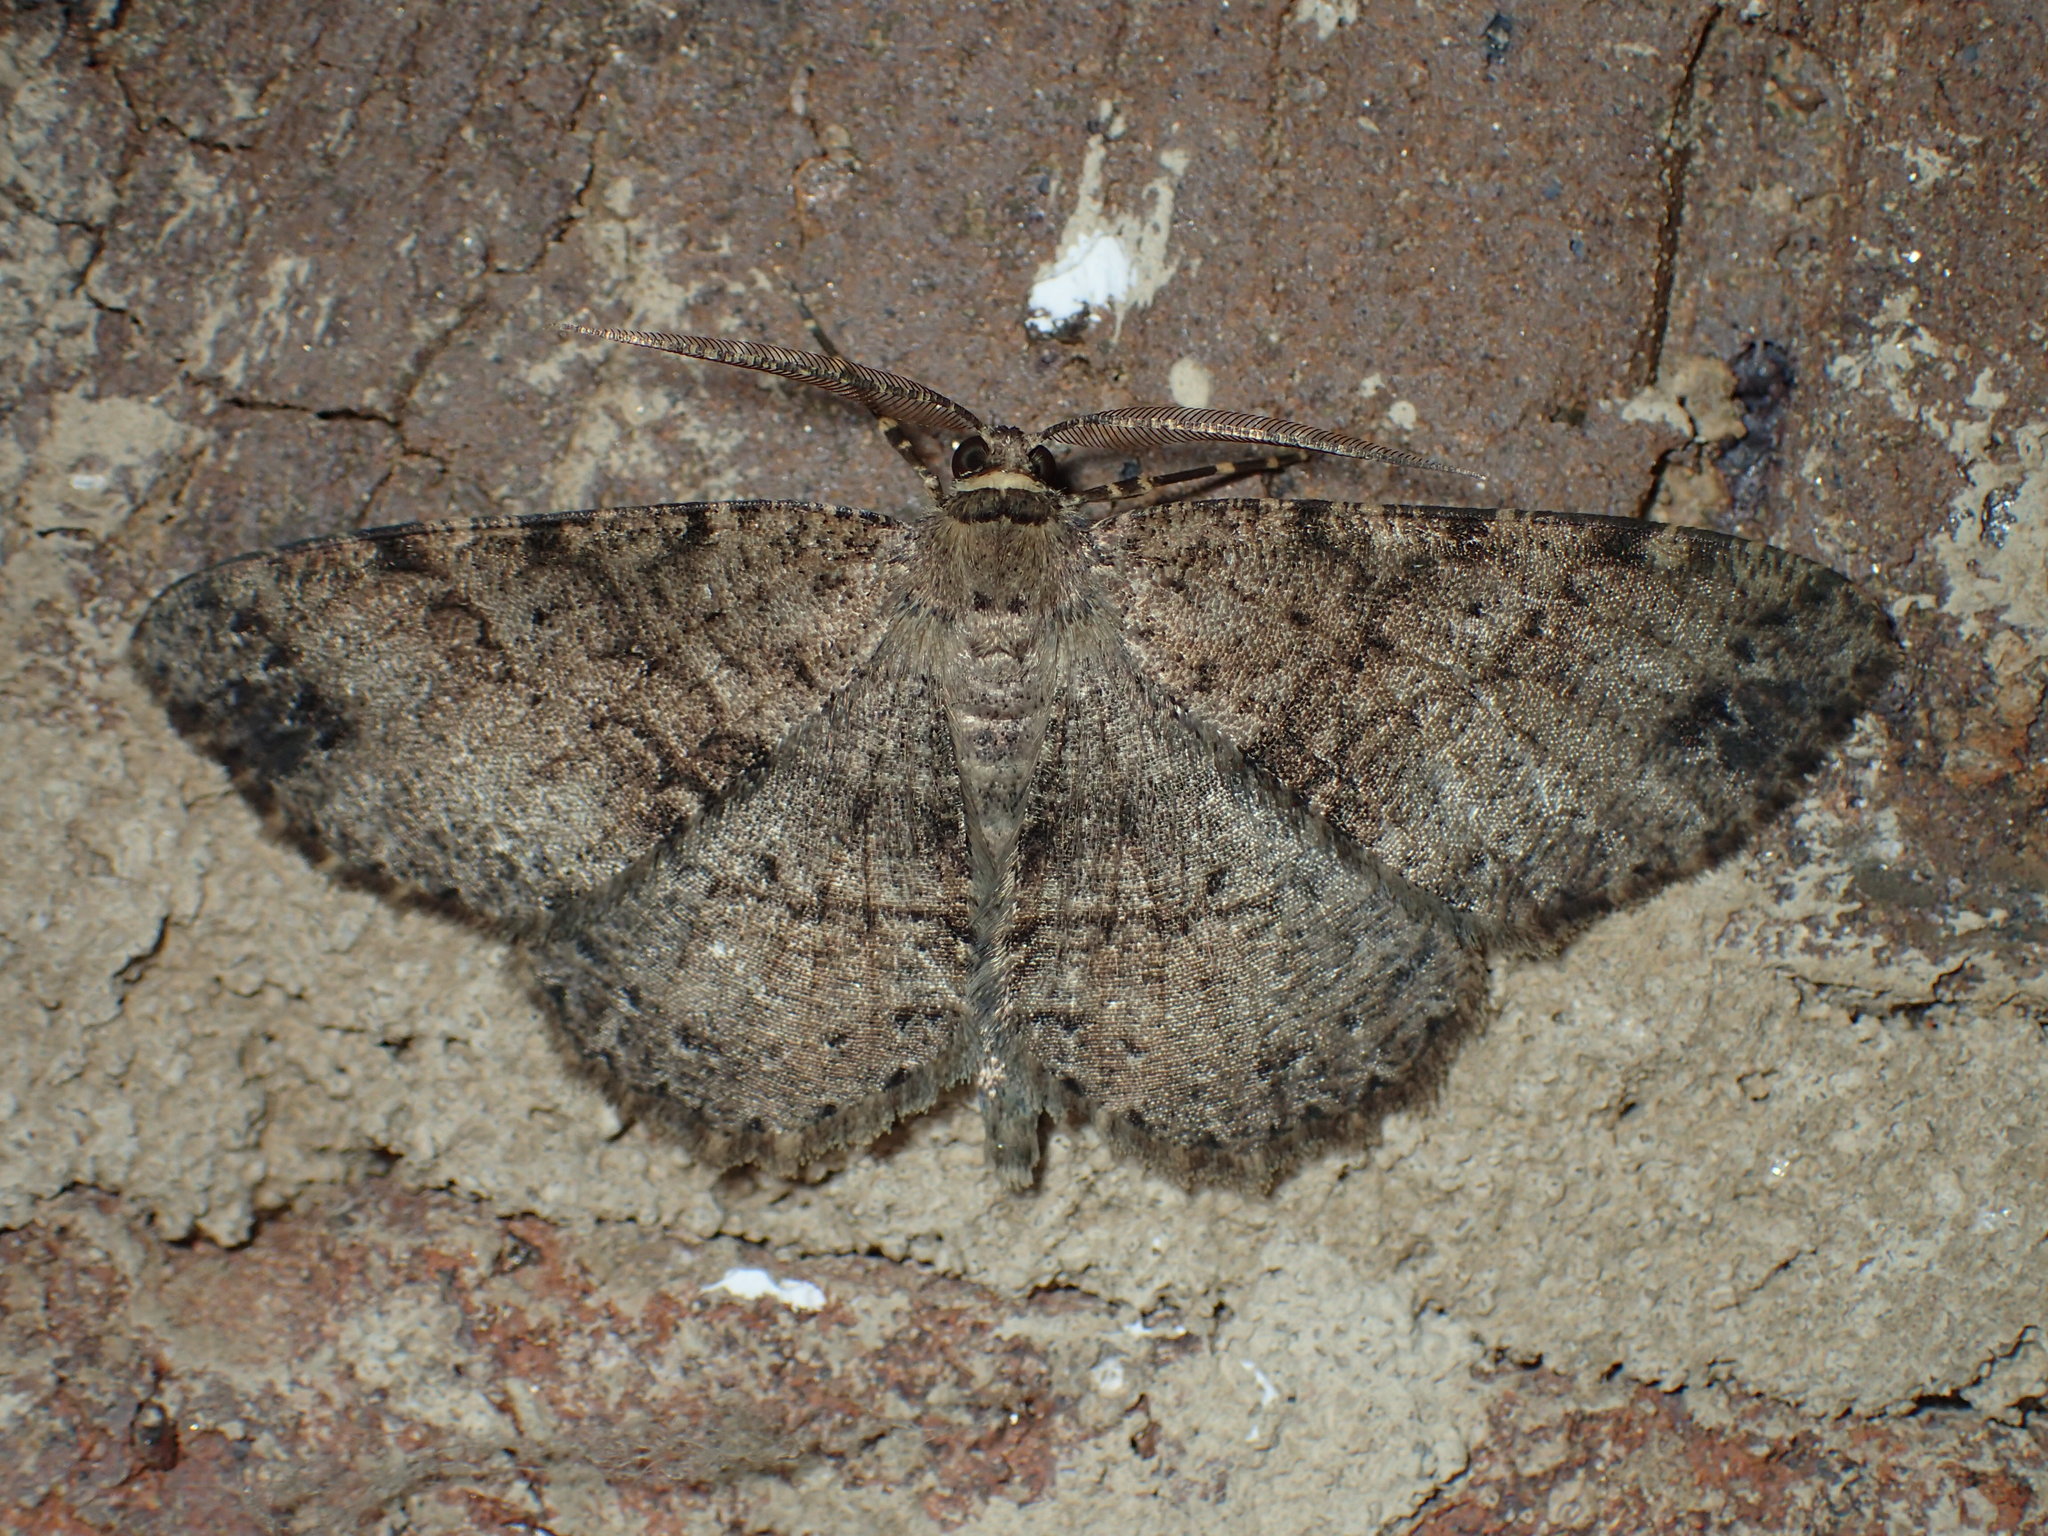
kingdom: Animalia
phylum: Arthropoda
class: Insecta
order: Lepidoptera
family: Geometridae
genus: Melanolophia
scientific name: Melanolophia signataria
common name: Signate melanolophia
